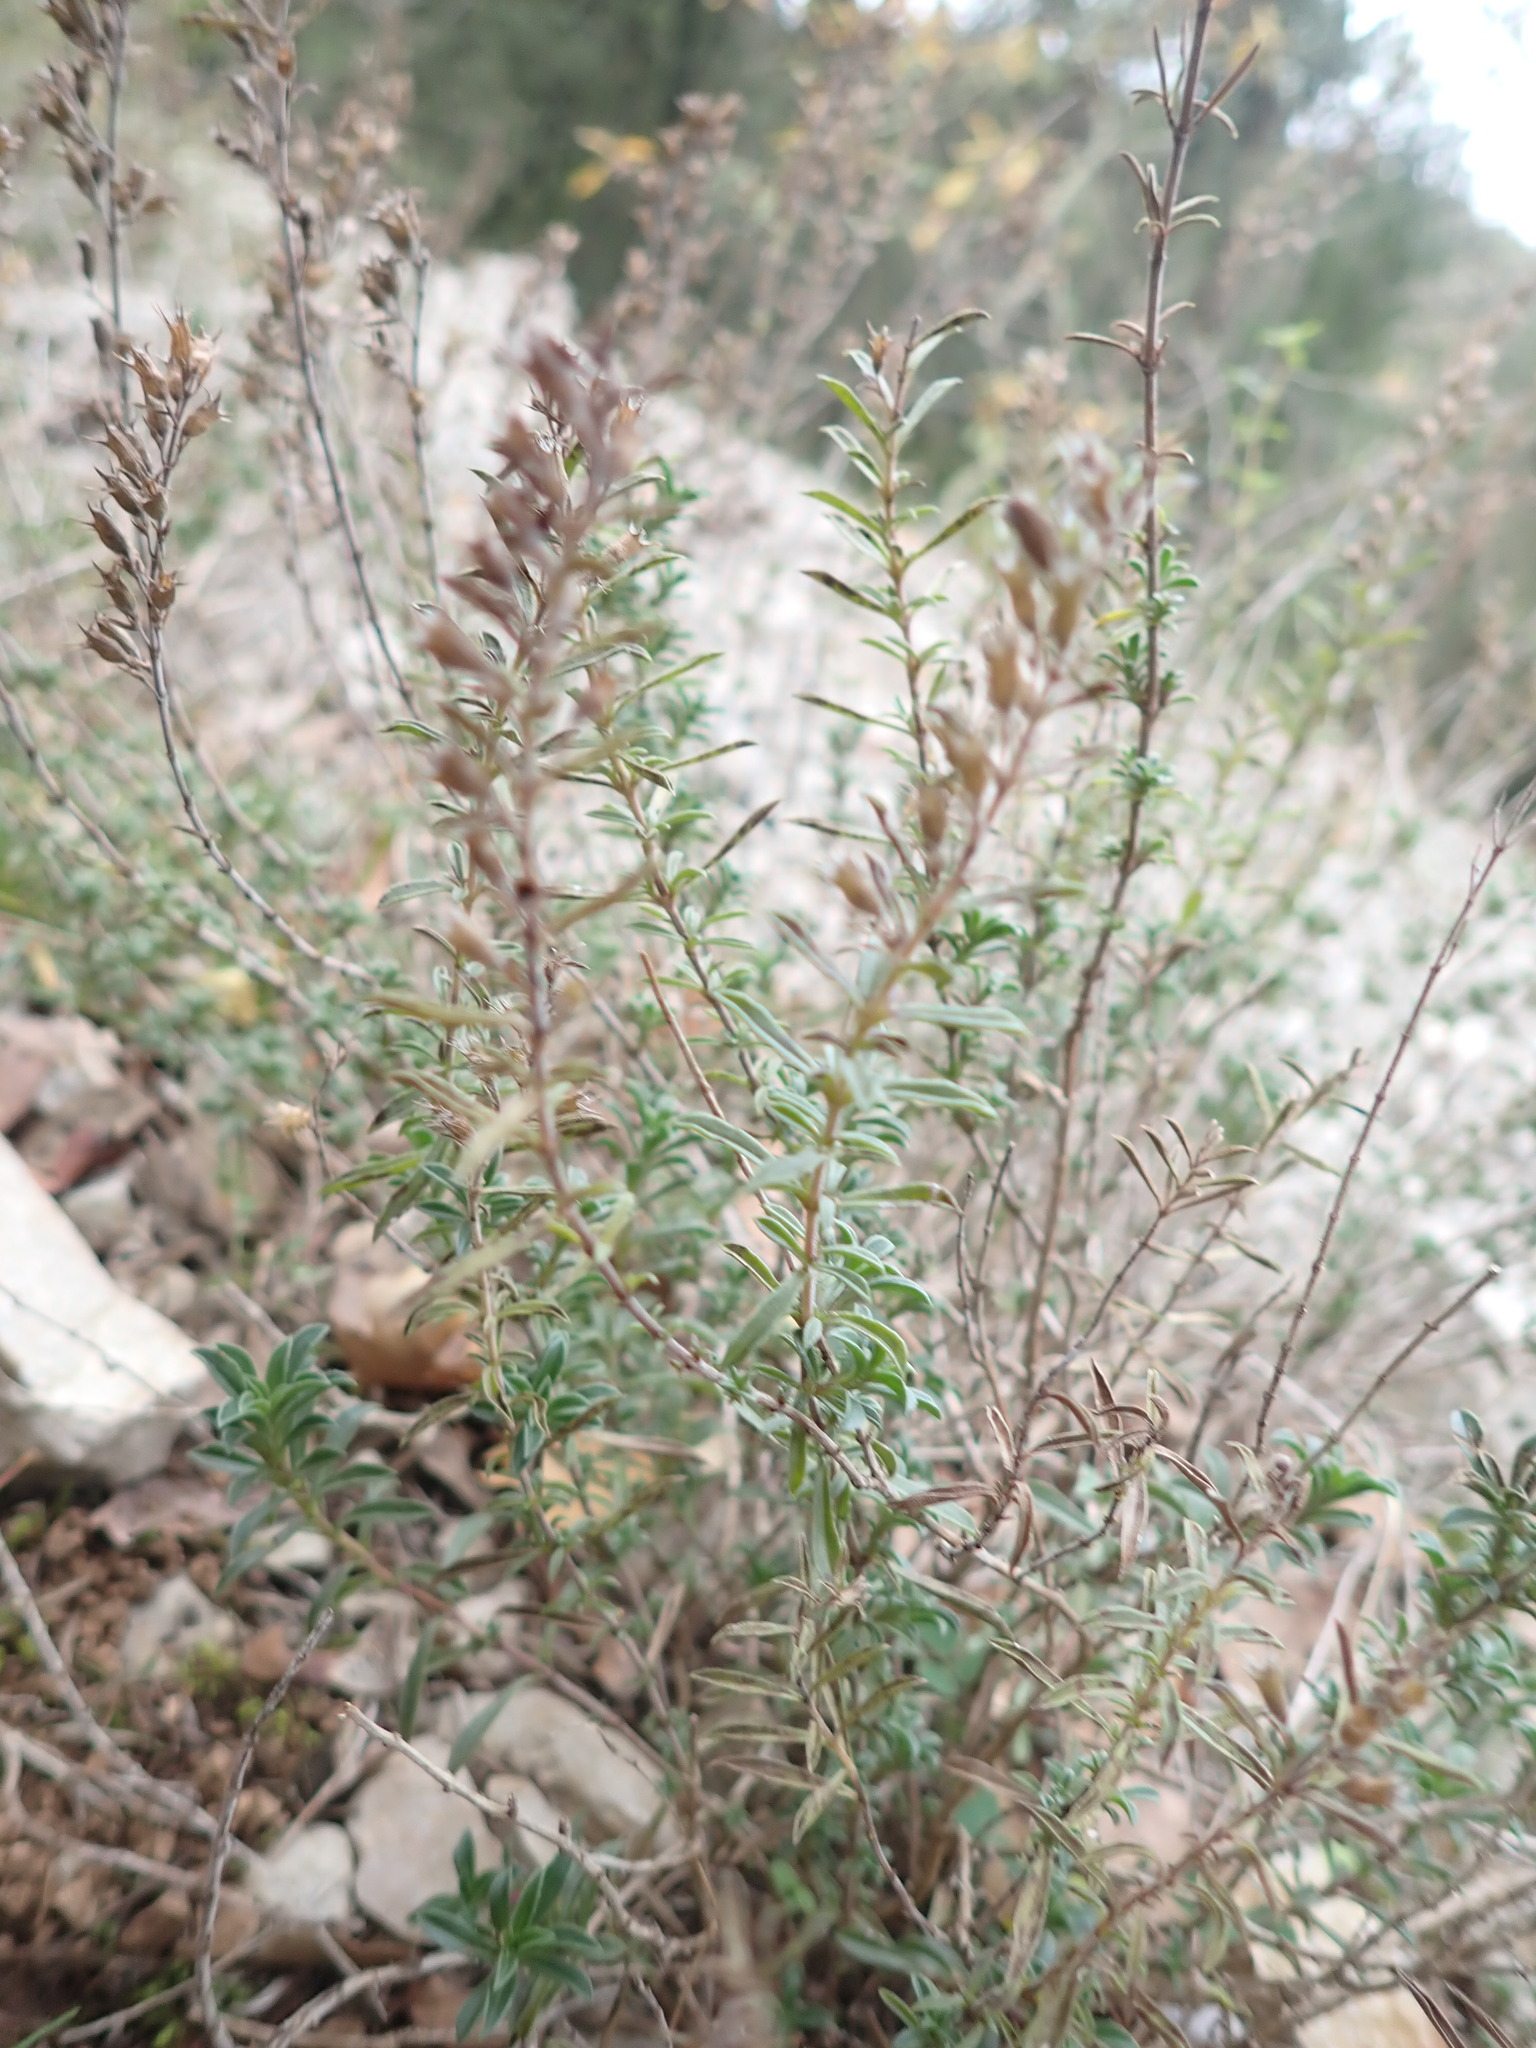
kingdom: Plantae
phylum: Tracheophyta
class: Magnoliopsida
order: Lamiales
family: Lamiaceae
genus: Satureja
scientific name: Satureja montana
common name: Winter savory
